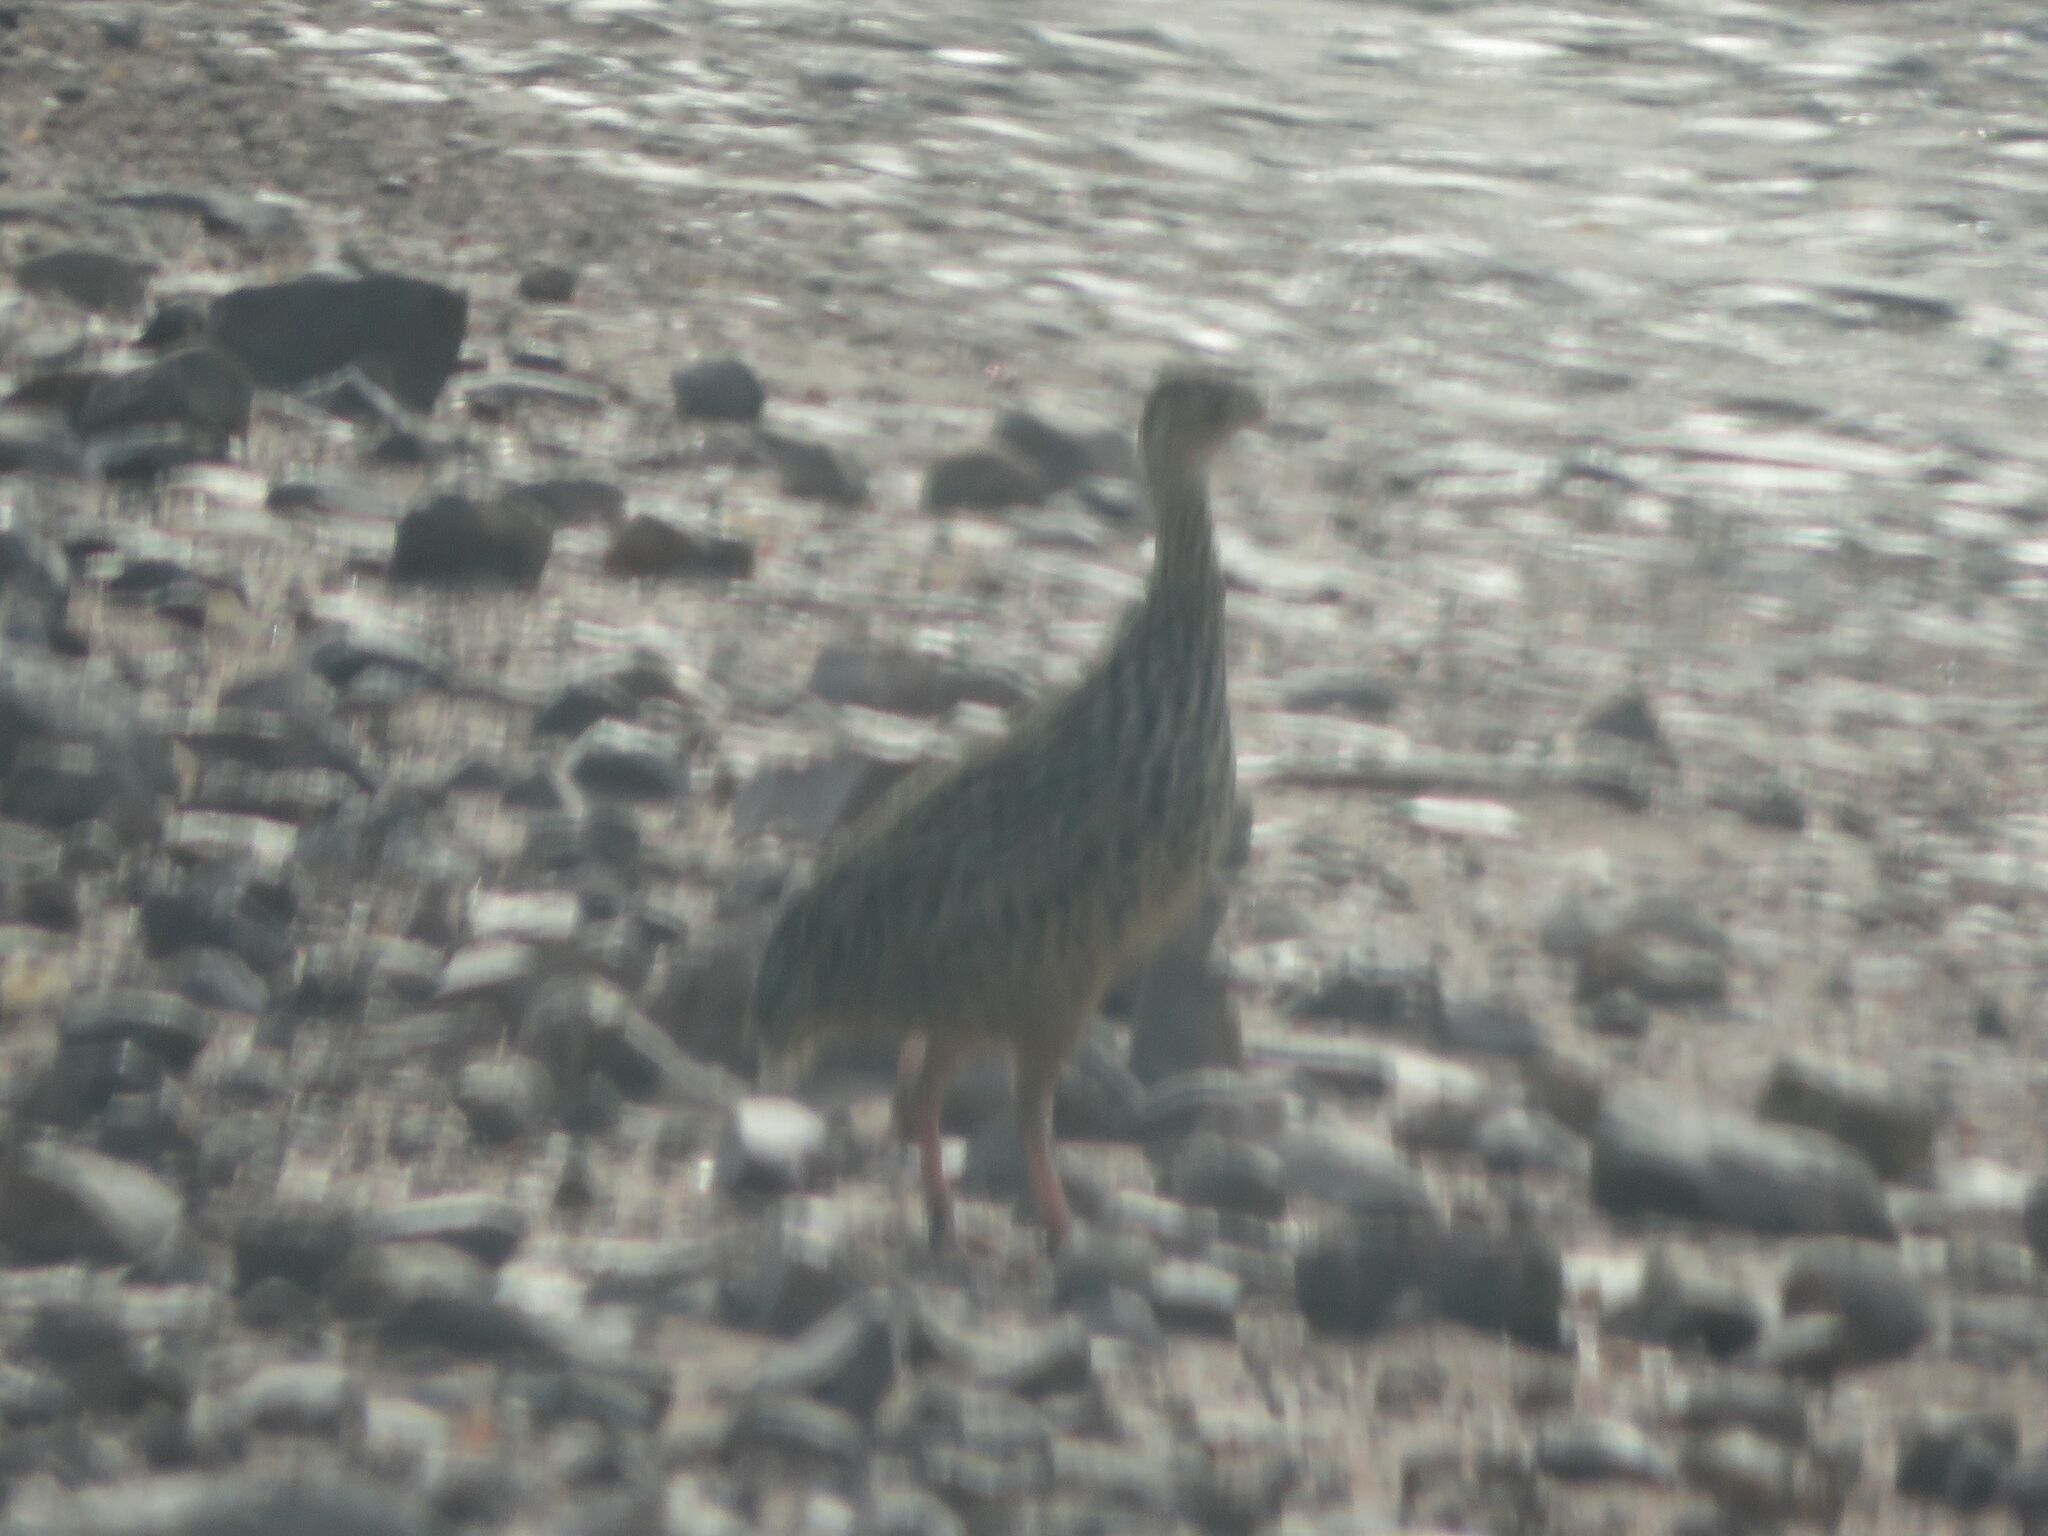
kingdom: Animalia
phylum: Chordata
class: Aves
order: Tinamiformes
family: Tinamidae
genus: Nothura
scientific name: Nothura maculosa
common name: Spotted nothura
